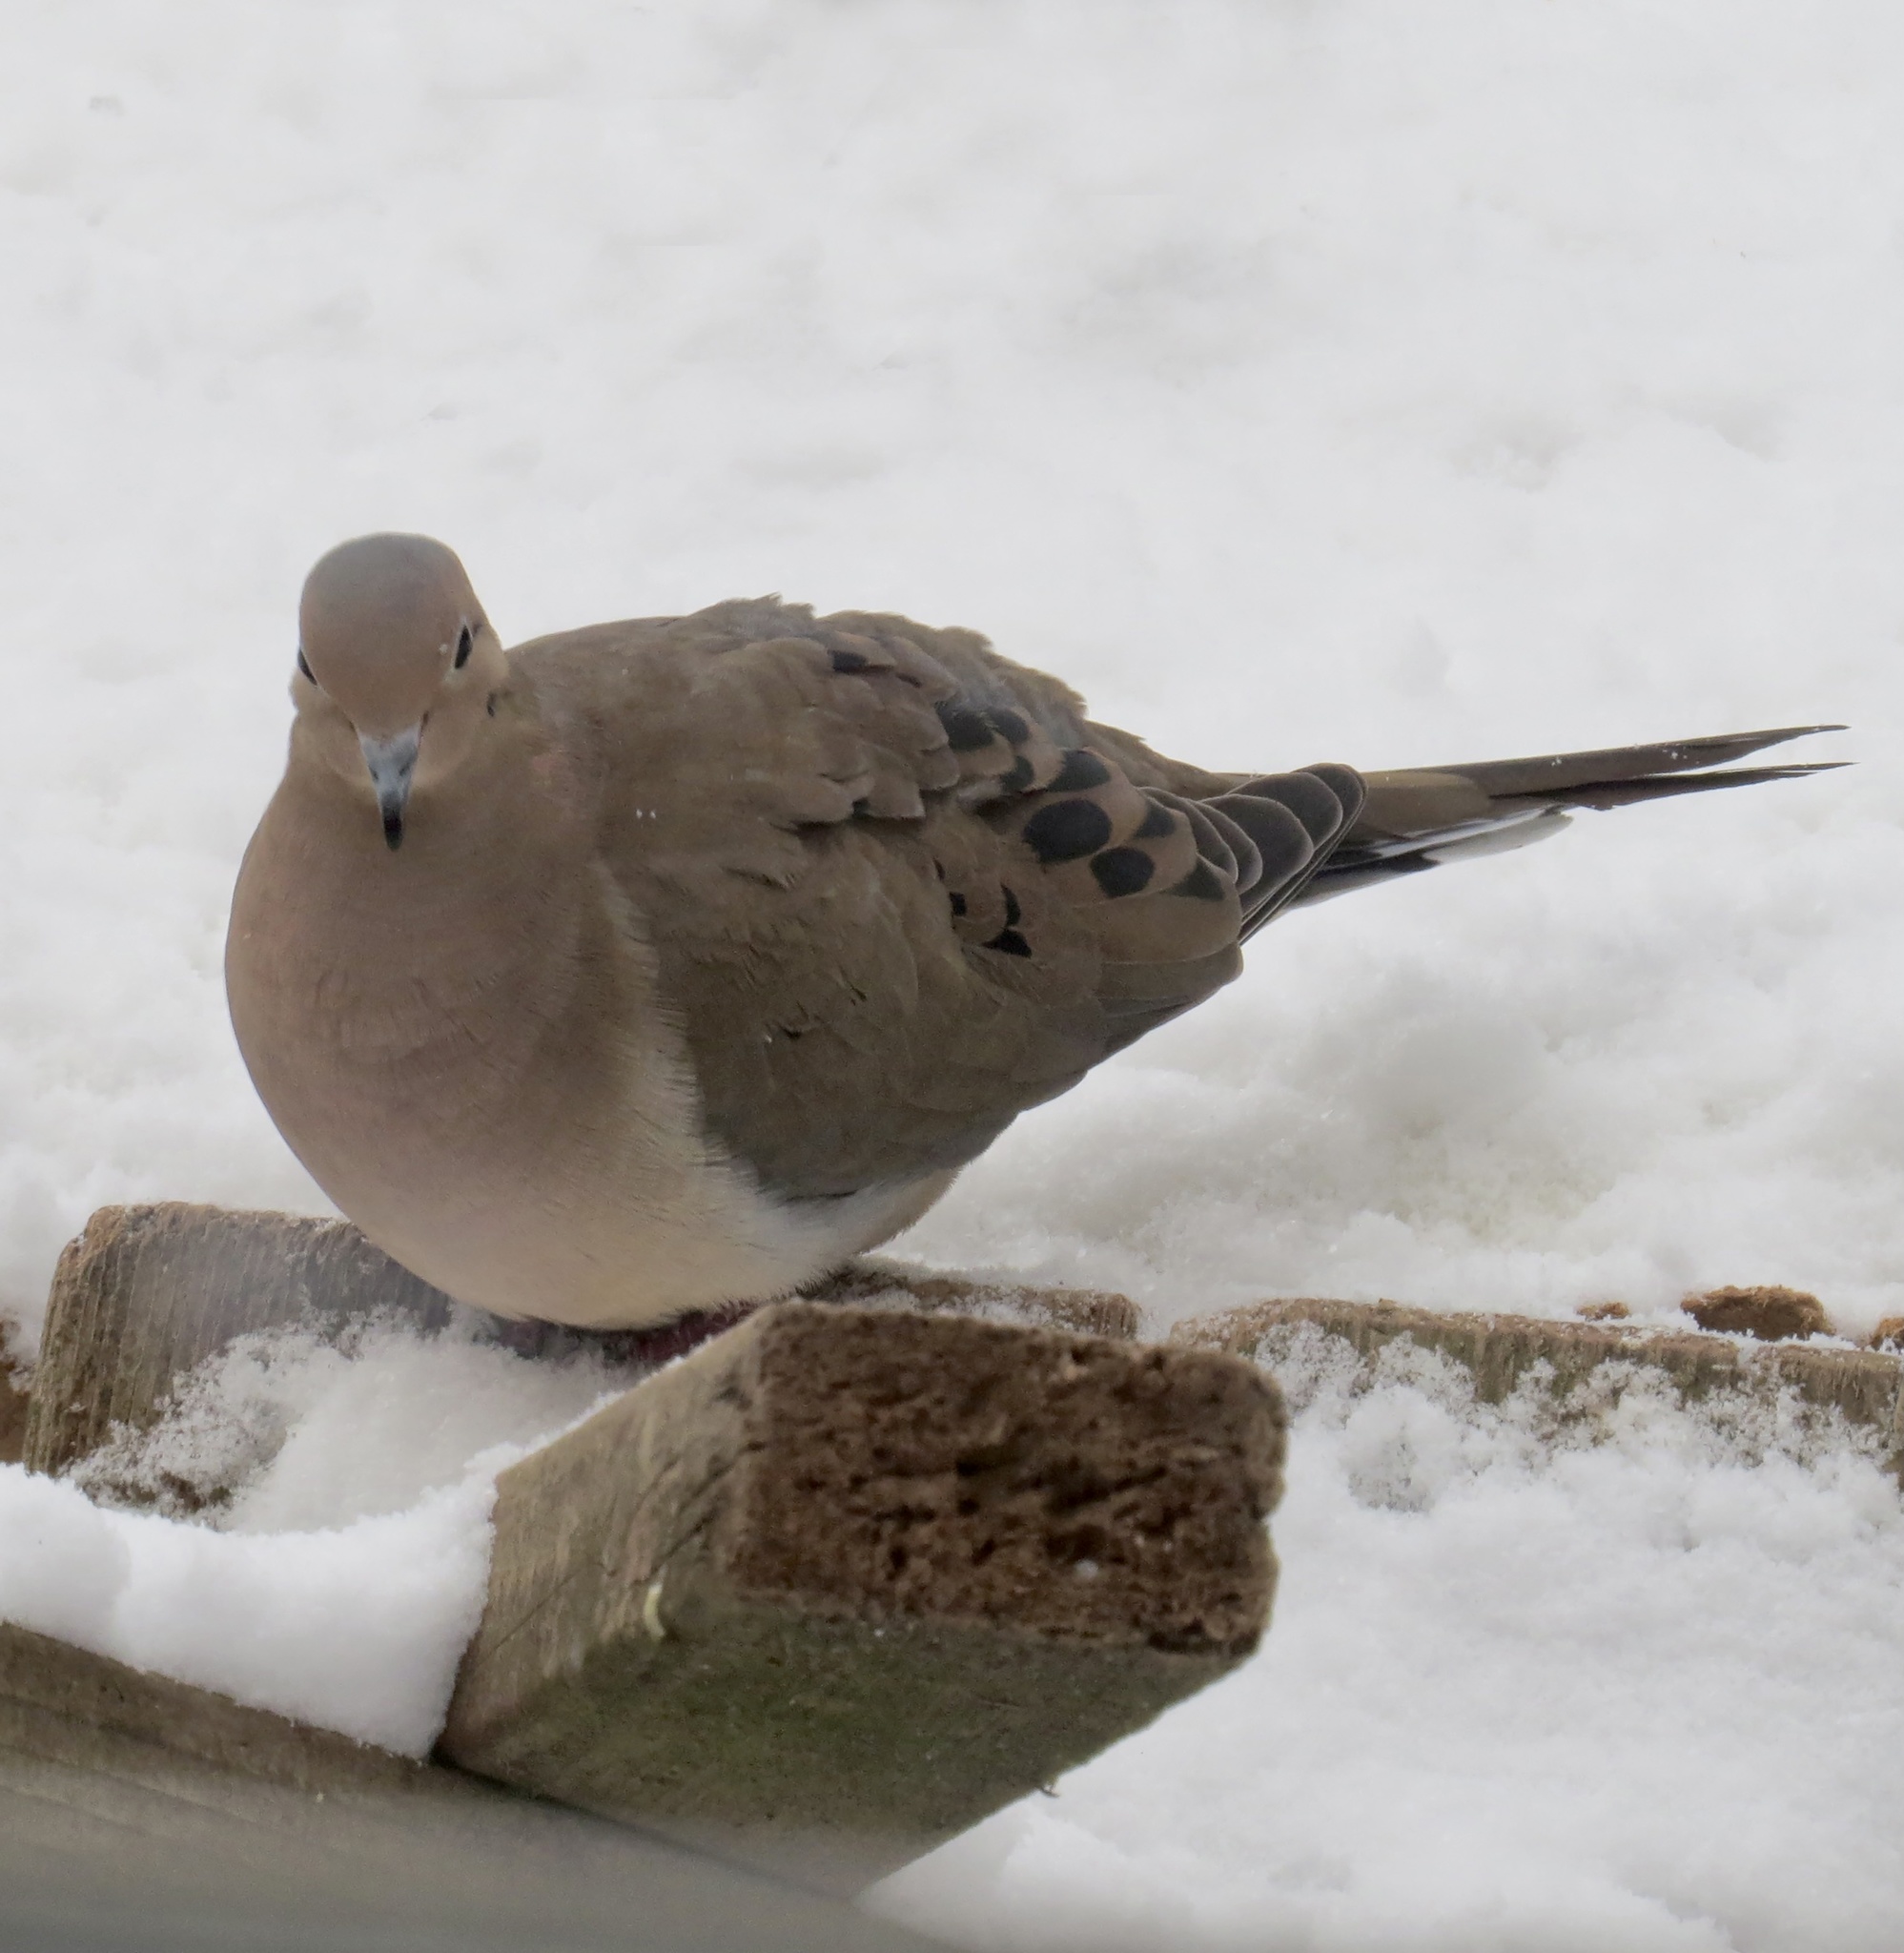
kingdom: Animalia
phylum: Chordata
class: Aves
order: Columbiformes
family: Columbidae
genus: Zenaida
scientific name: Zenaida macroura
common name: Mourning dove
